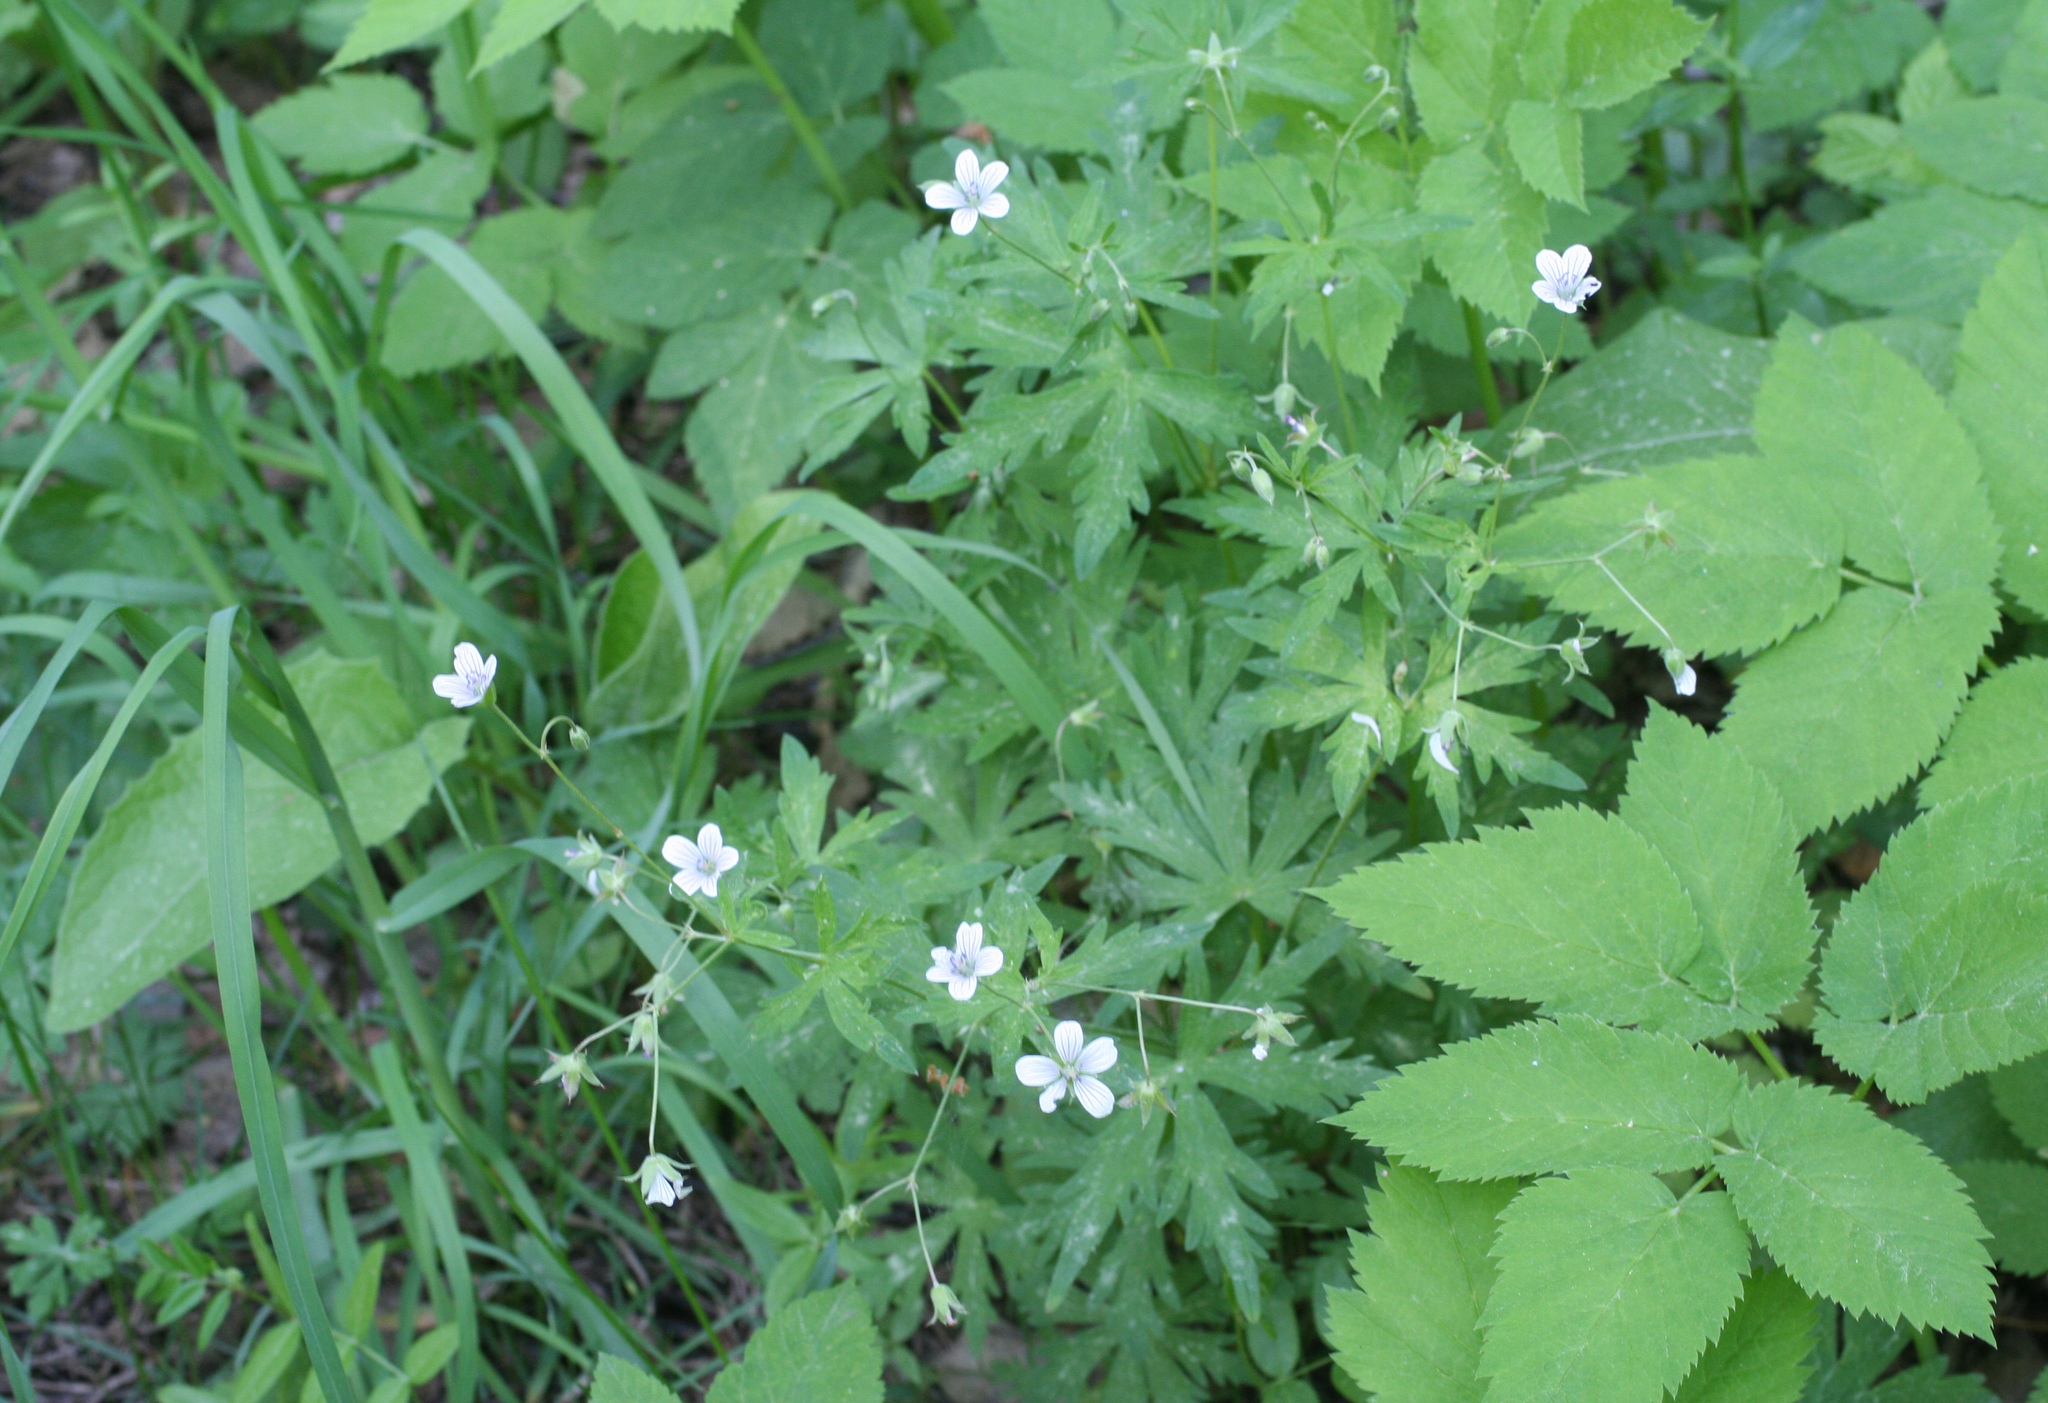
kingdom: Plantae
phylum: Tracheophyta
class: Magnoliopsida
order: Geraniales
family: Geraniaceae
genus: Geranium
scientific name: Geranium pseudosibiricum
